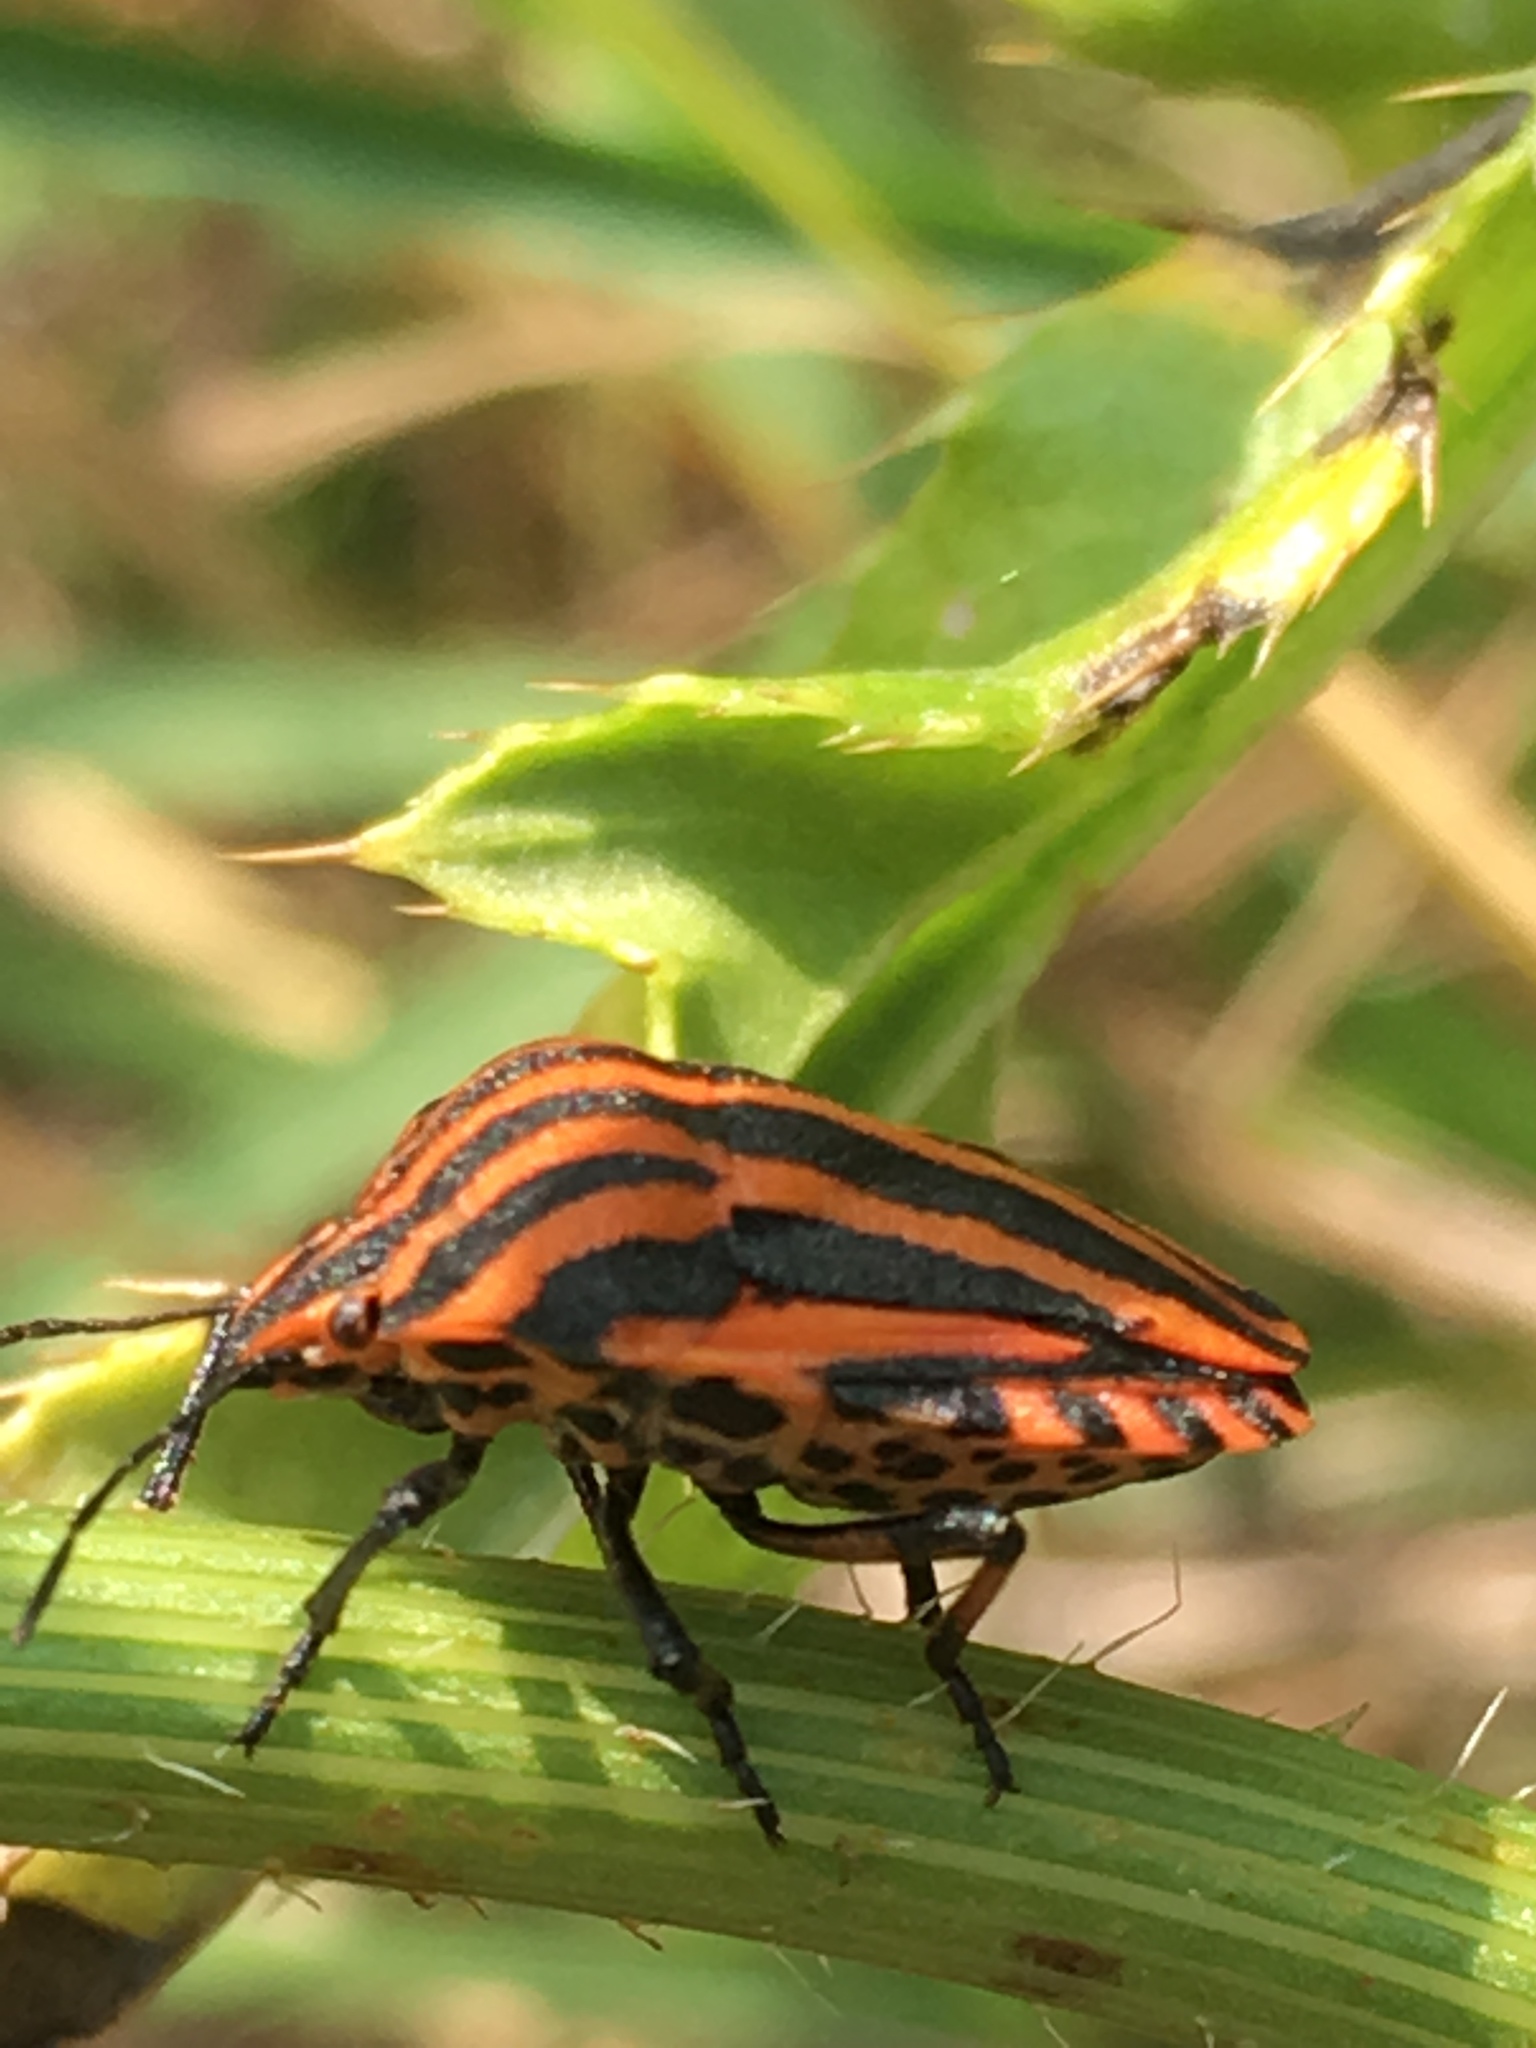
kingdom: Animalia
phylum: Arthropoda
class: Insecta
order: Hemiptera
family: Pentatomidae
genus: Graphosoma
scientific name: Graphosoma italicum
